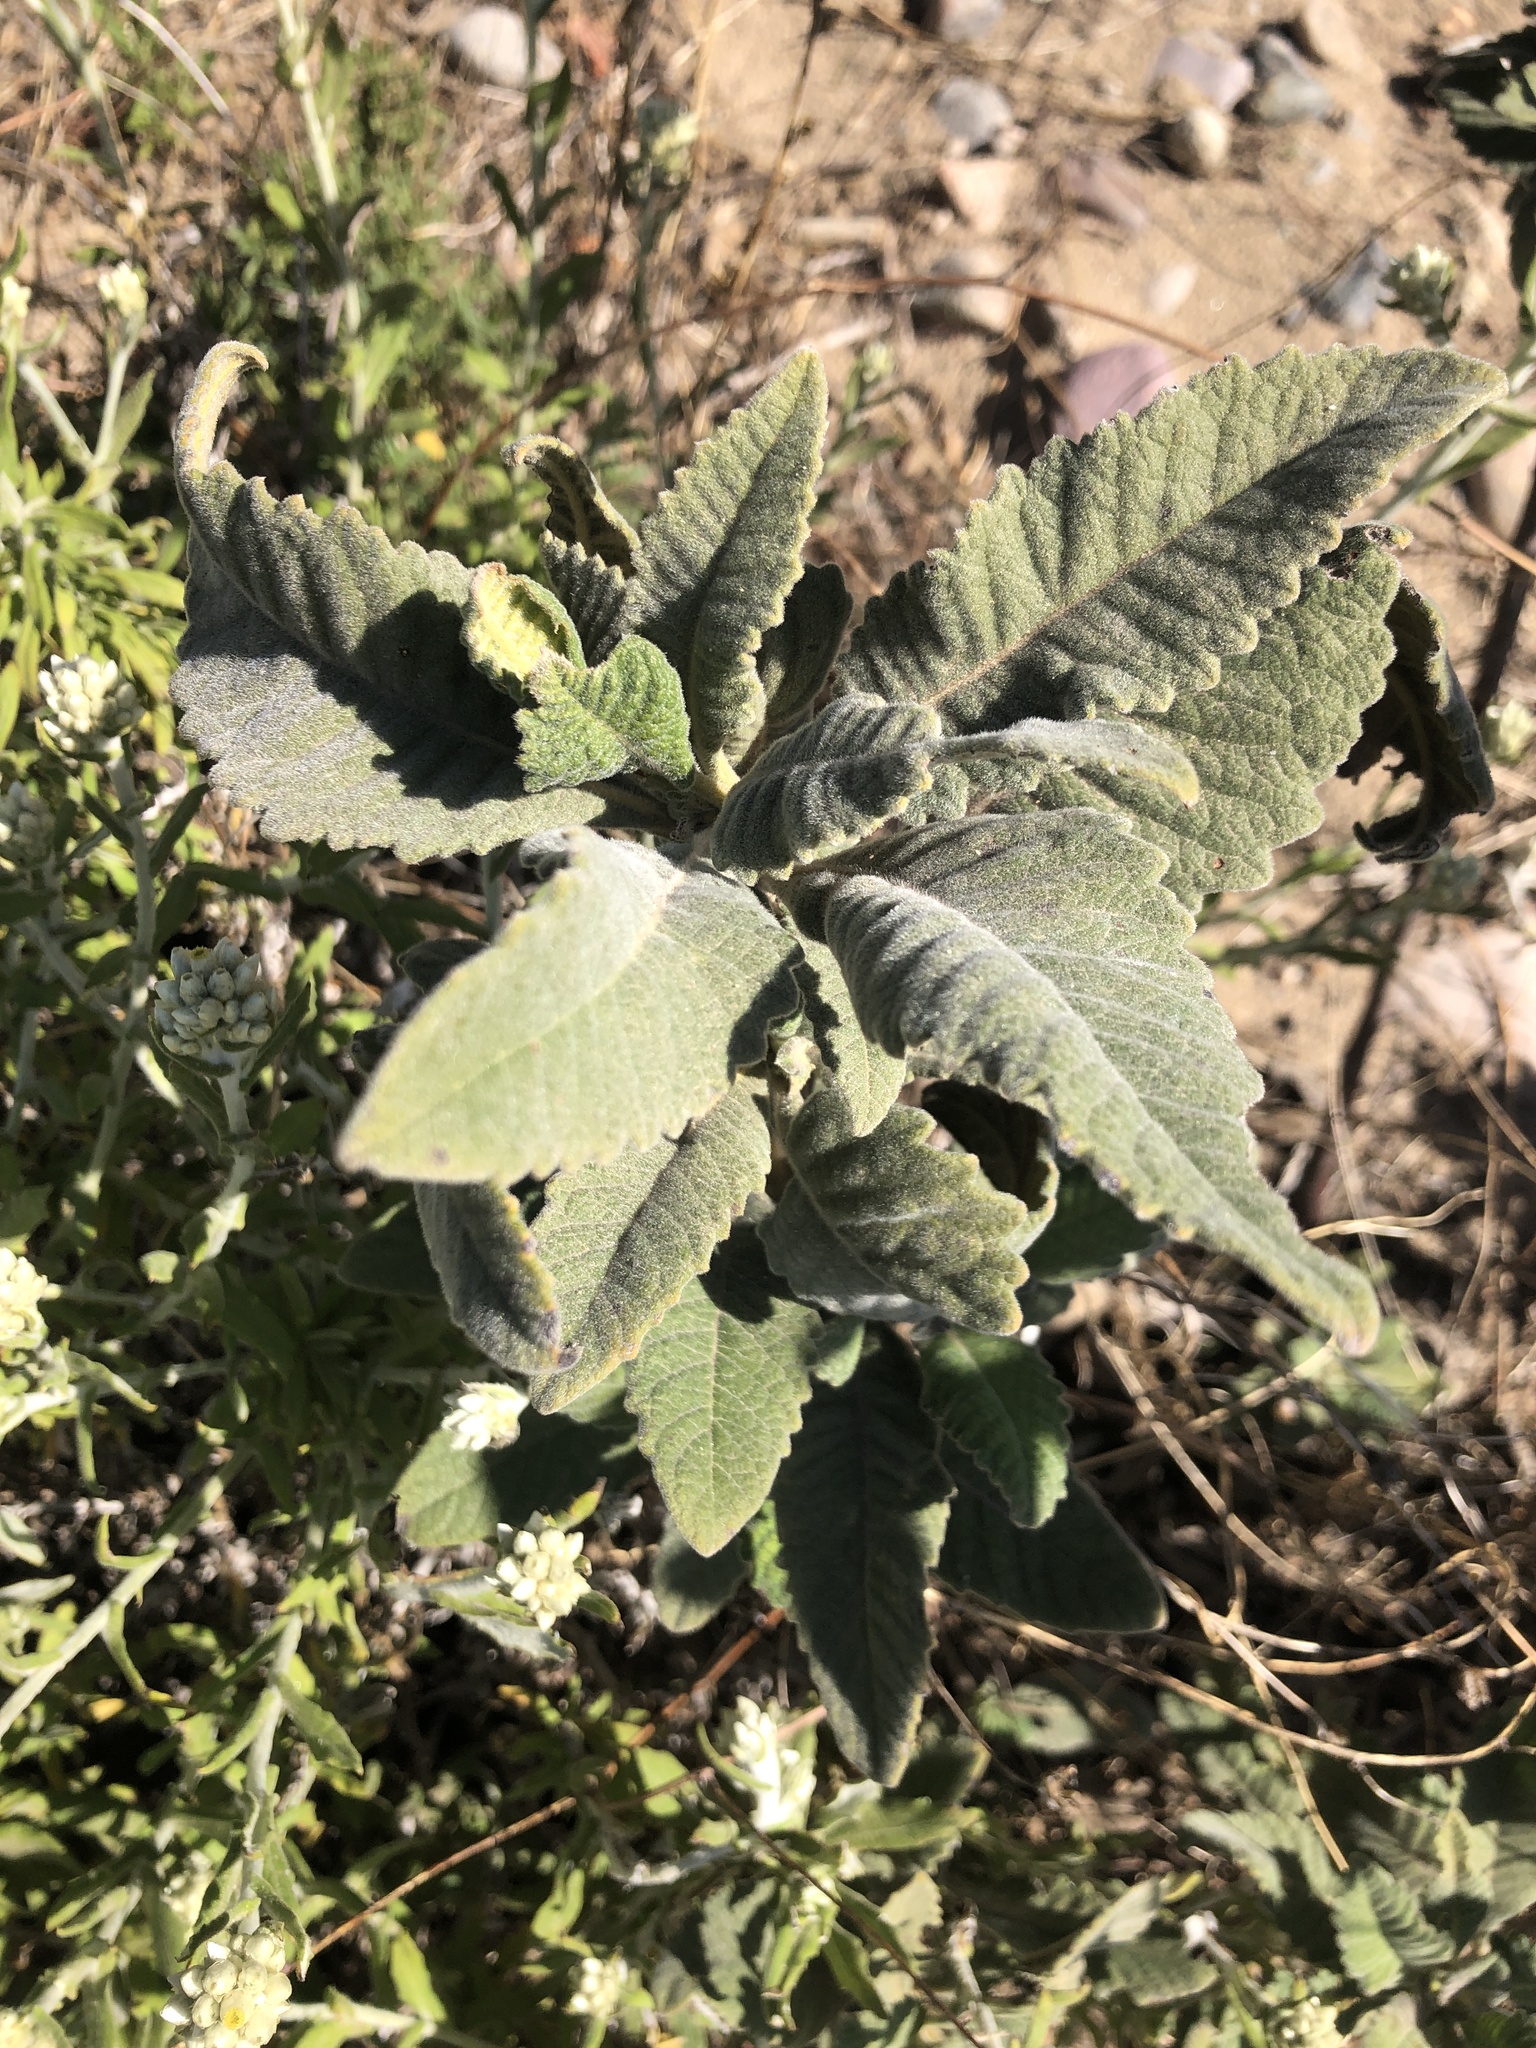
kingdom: Plantae
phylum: Tracheophyta
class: Magnoliopsida
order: Boraginales
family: Namaceae
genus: Eriodictyon
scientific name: Eriodictyon crassifolium
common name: Thick-leaf yerba-santa
